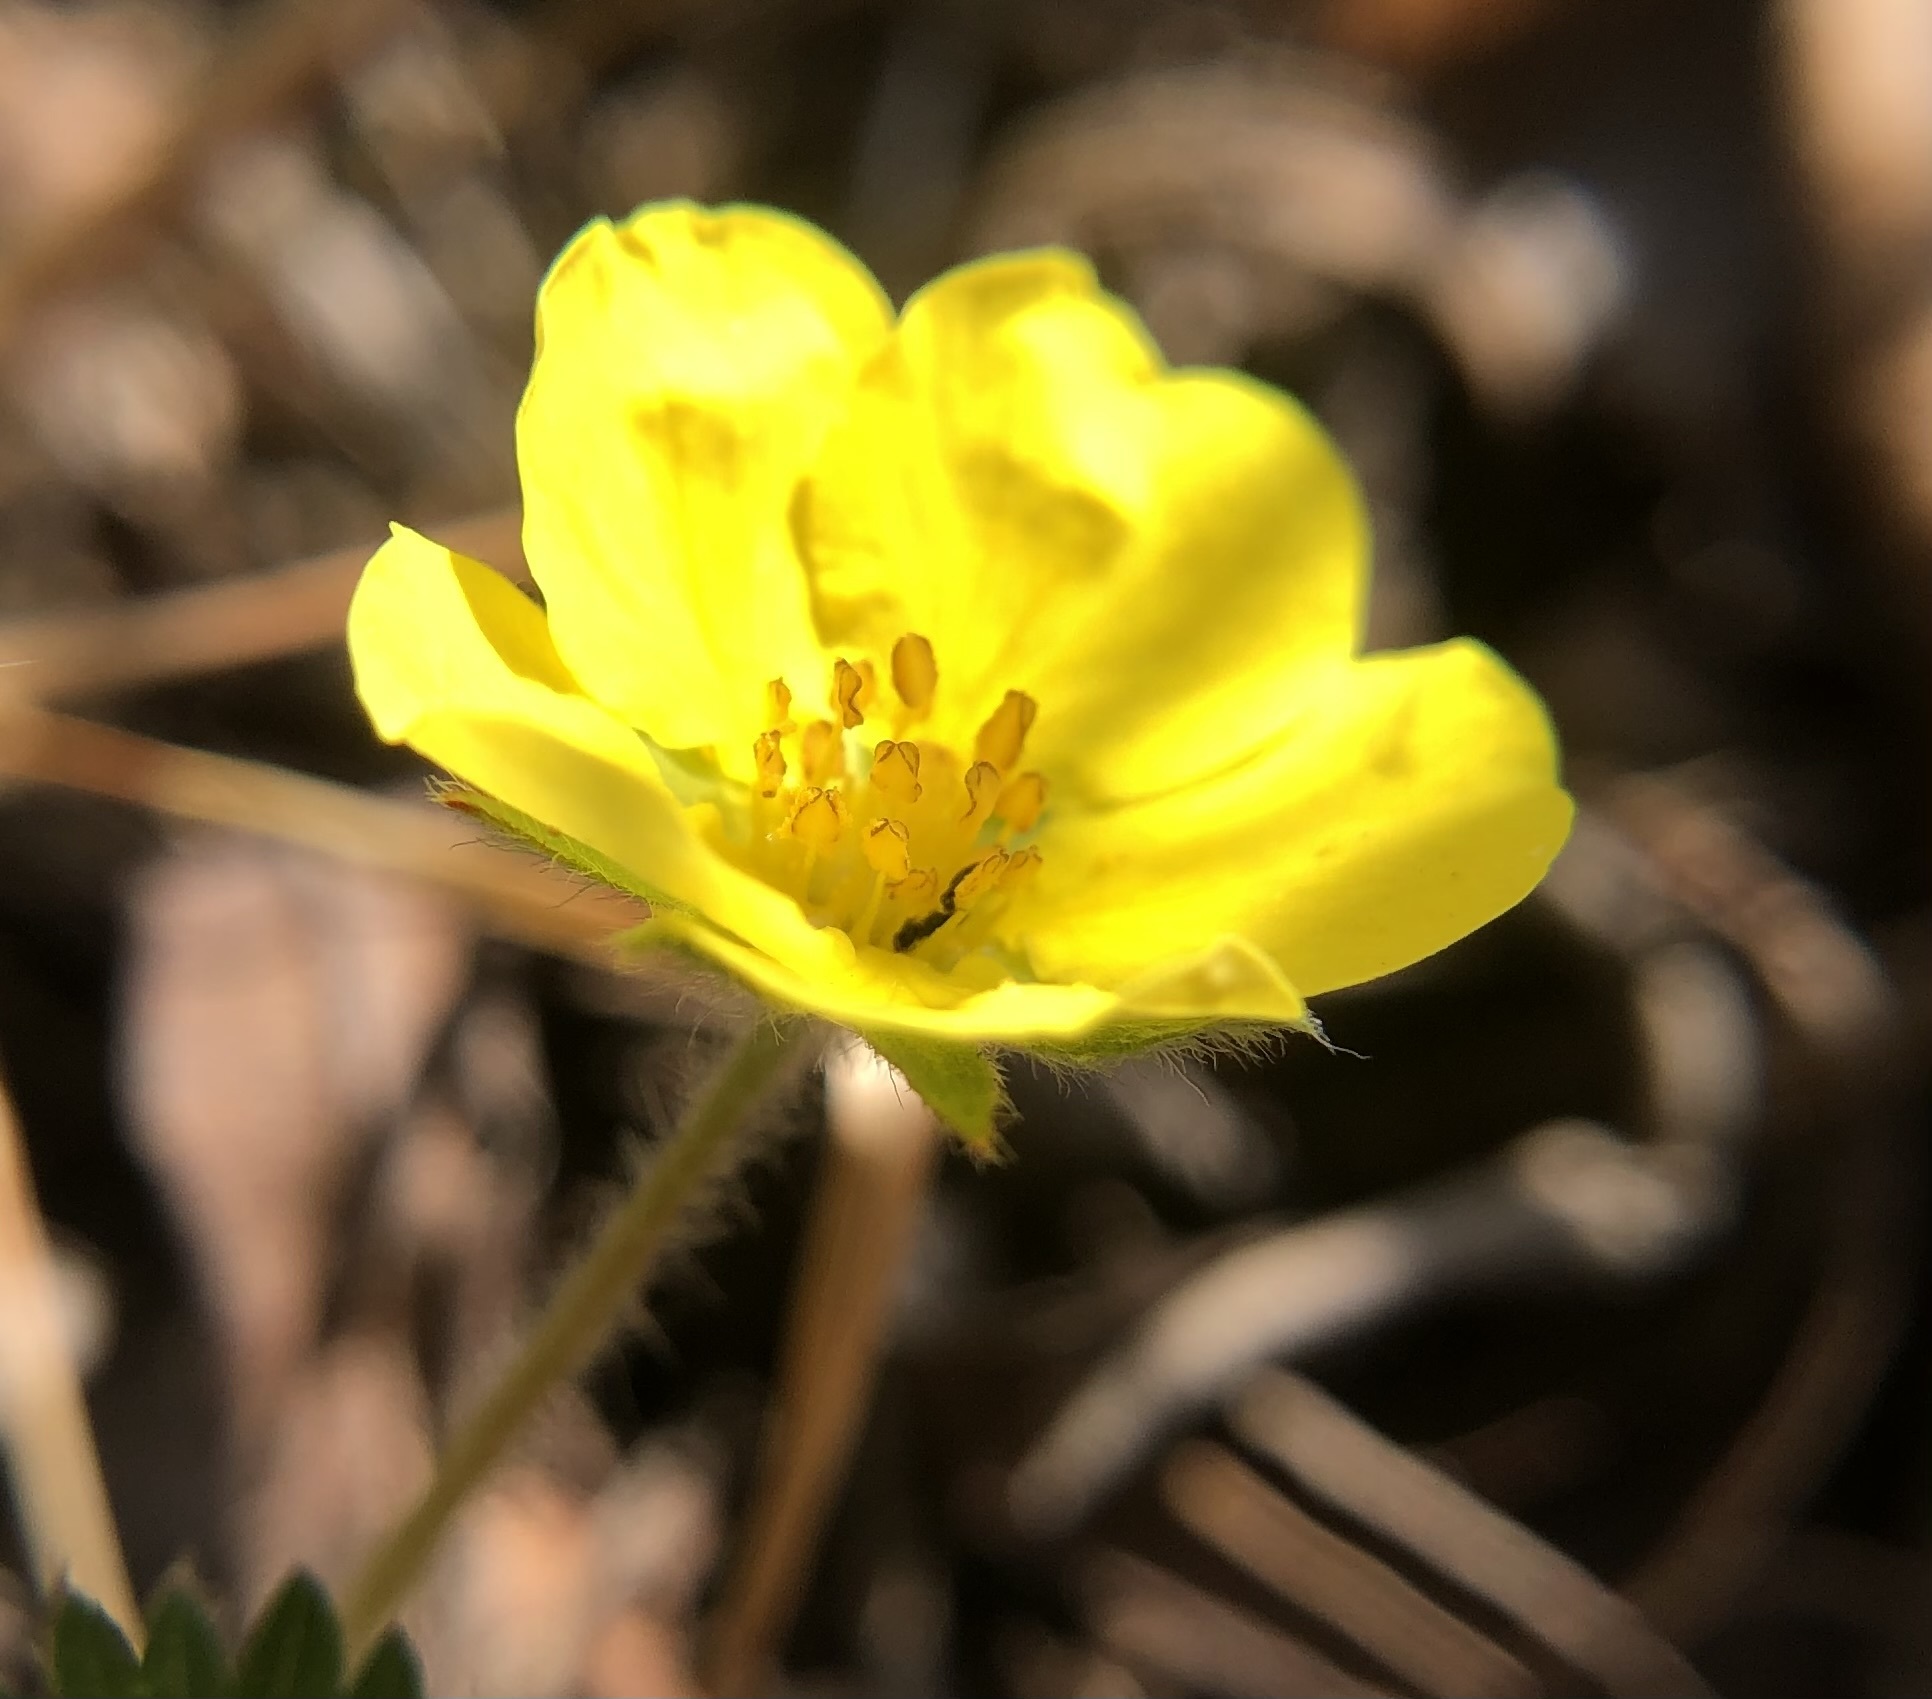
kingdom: Plantae
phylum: Tracheophyta
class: Magnoliopsida
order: Rosales
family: Rosaceae
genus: Potentilla
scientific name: Potentilla canadensis
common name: Canada cinquefoil
